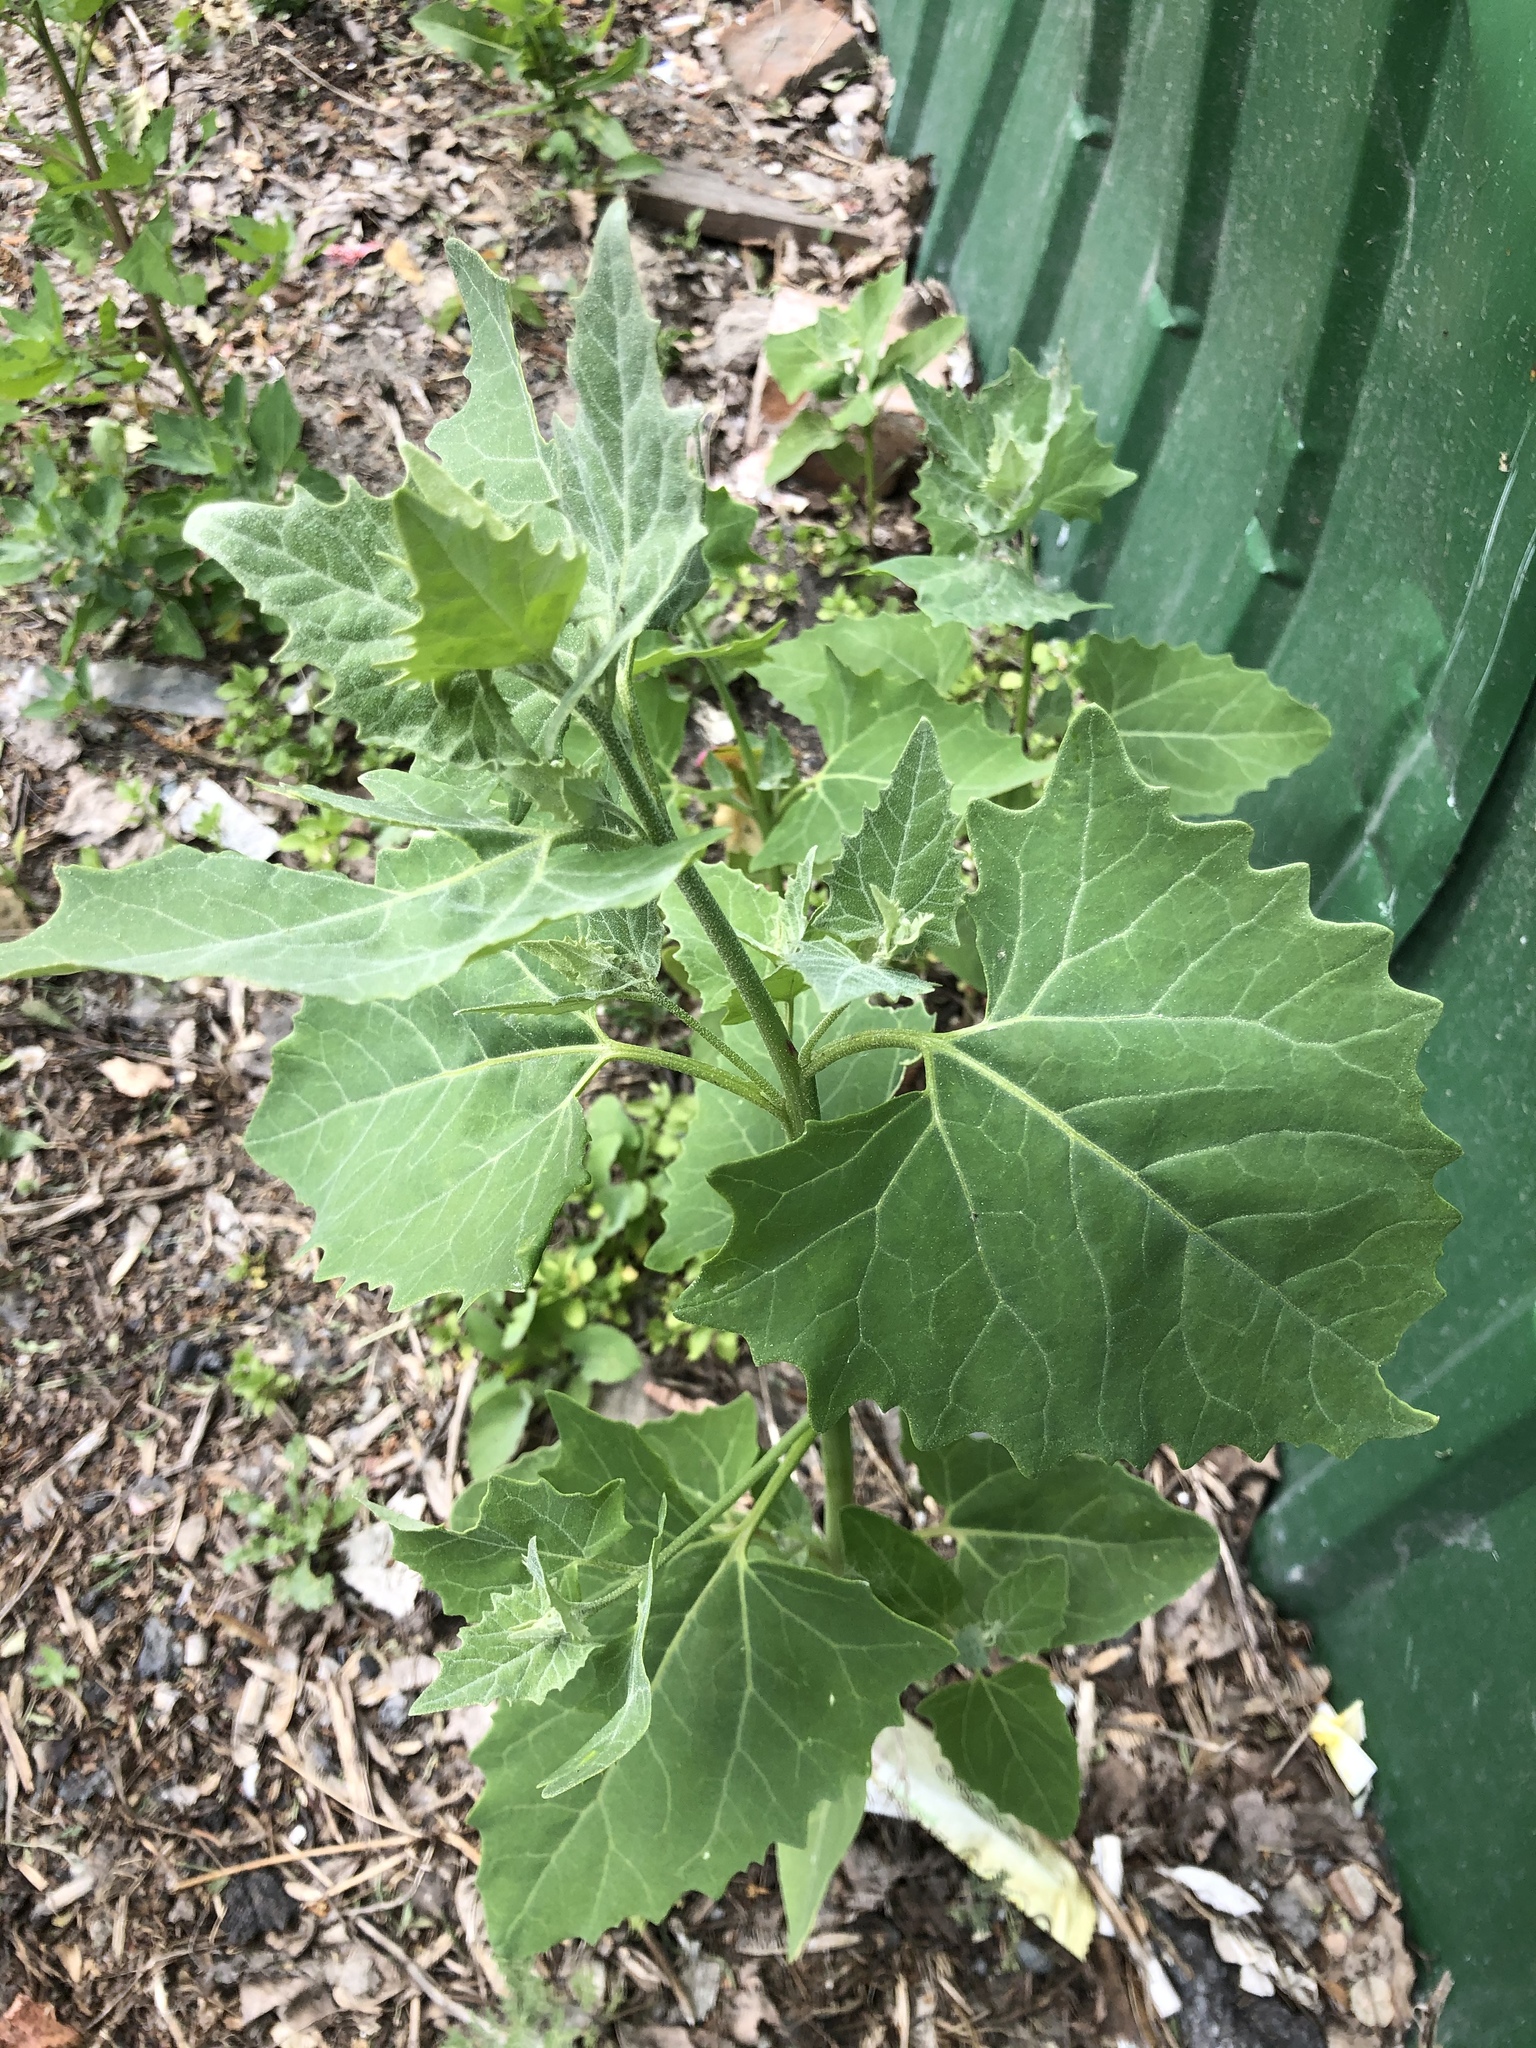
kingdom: Plantae
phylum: Tracheophyta
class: Magnoliopsida
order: Caryophyllales
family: Amaranthaceae
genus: Atriplex
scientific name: Atriplex sagittata
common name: Purple orache
